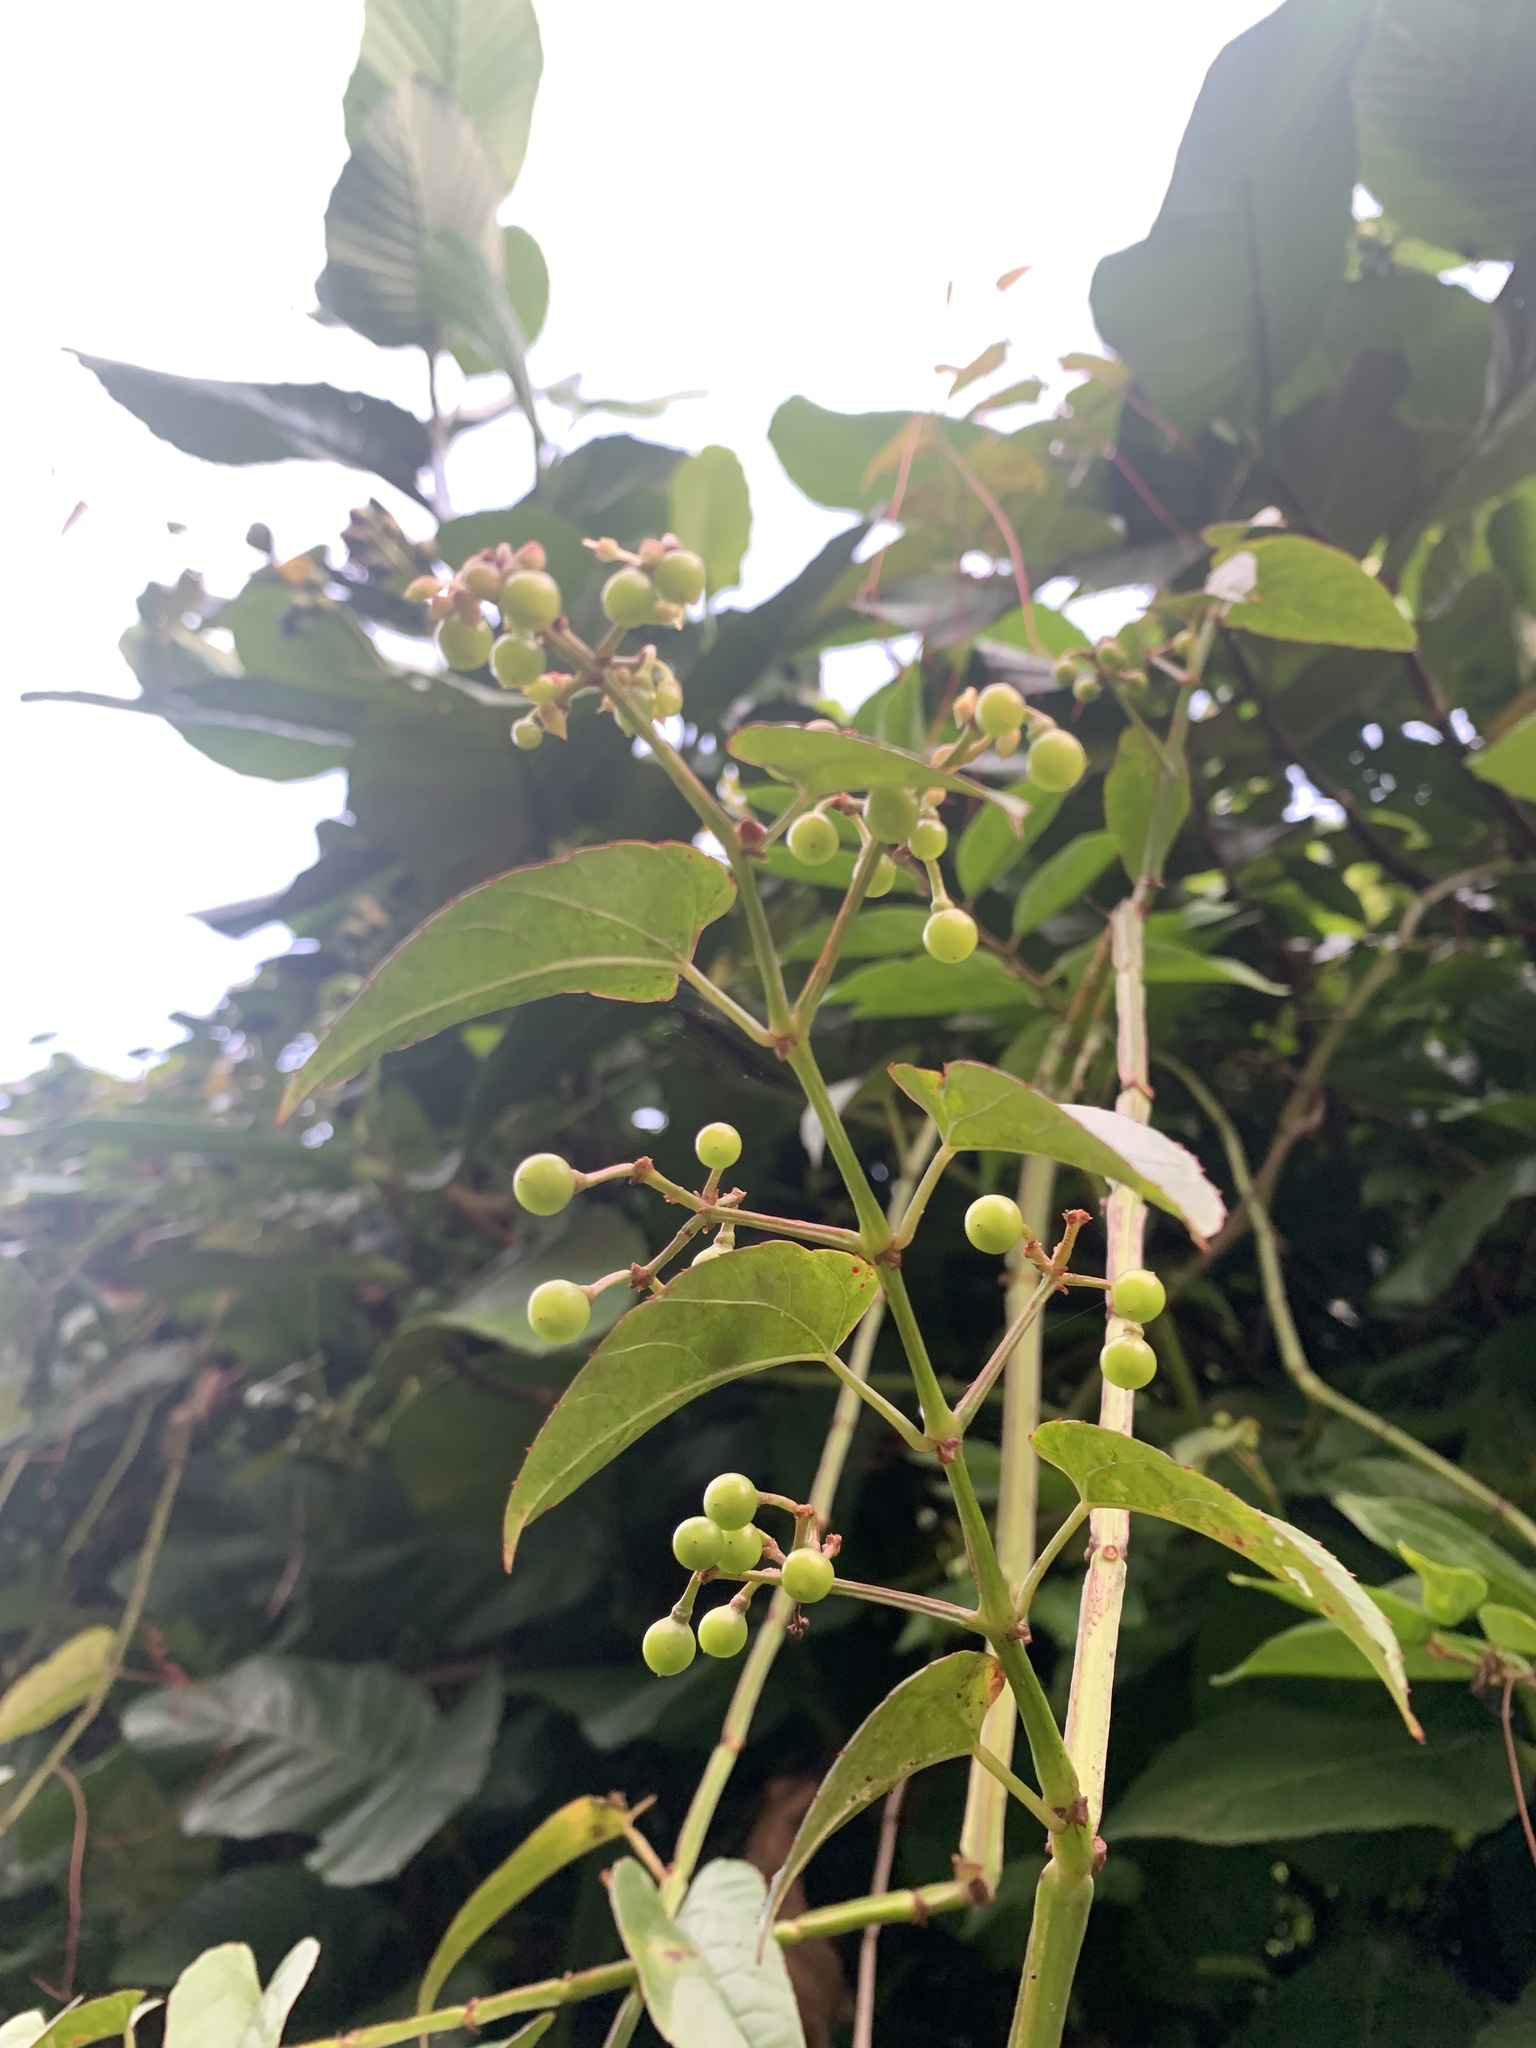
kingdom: Plantae
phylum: Tracheophyta
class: Magnoliopsida
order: Vitales
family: Vitaceae
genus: Cissus
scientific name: Cissus hastata
